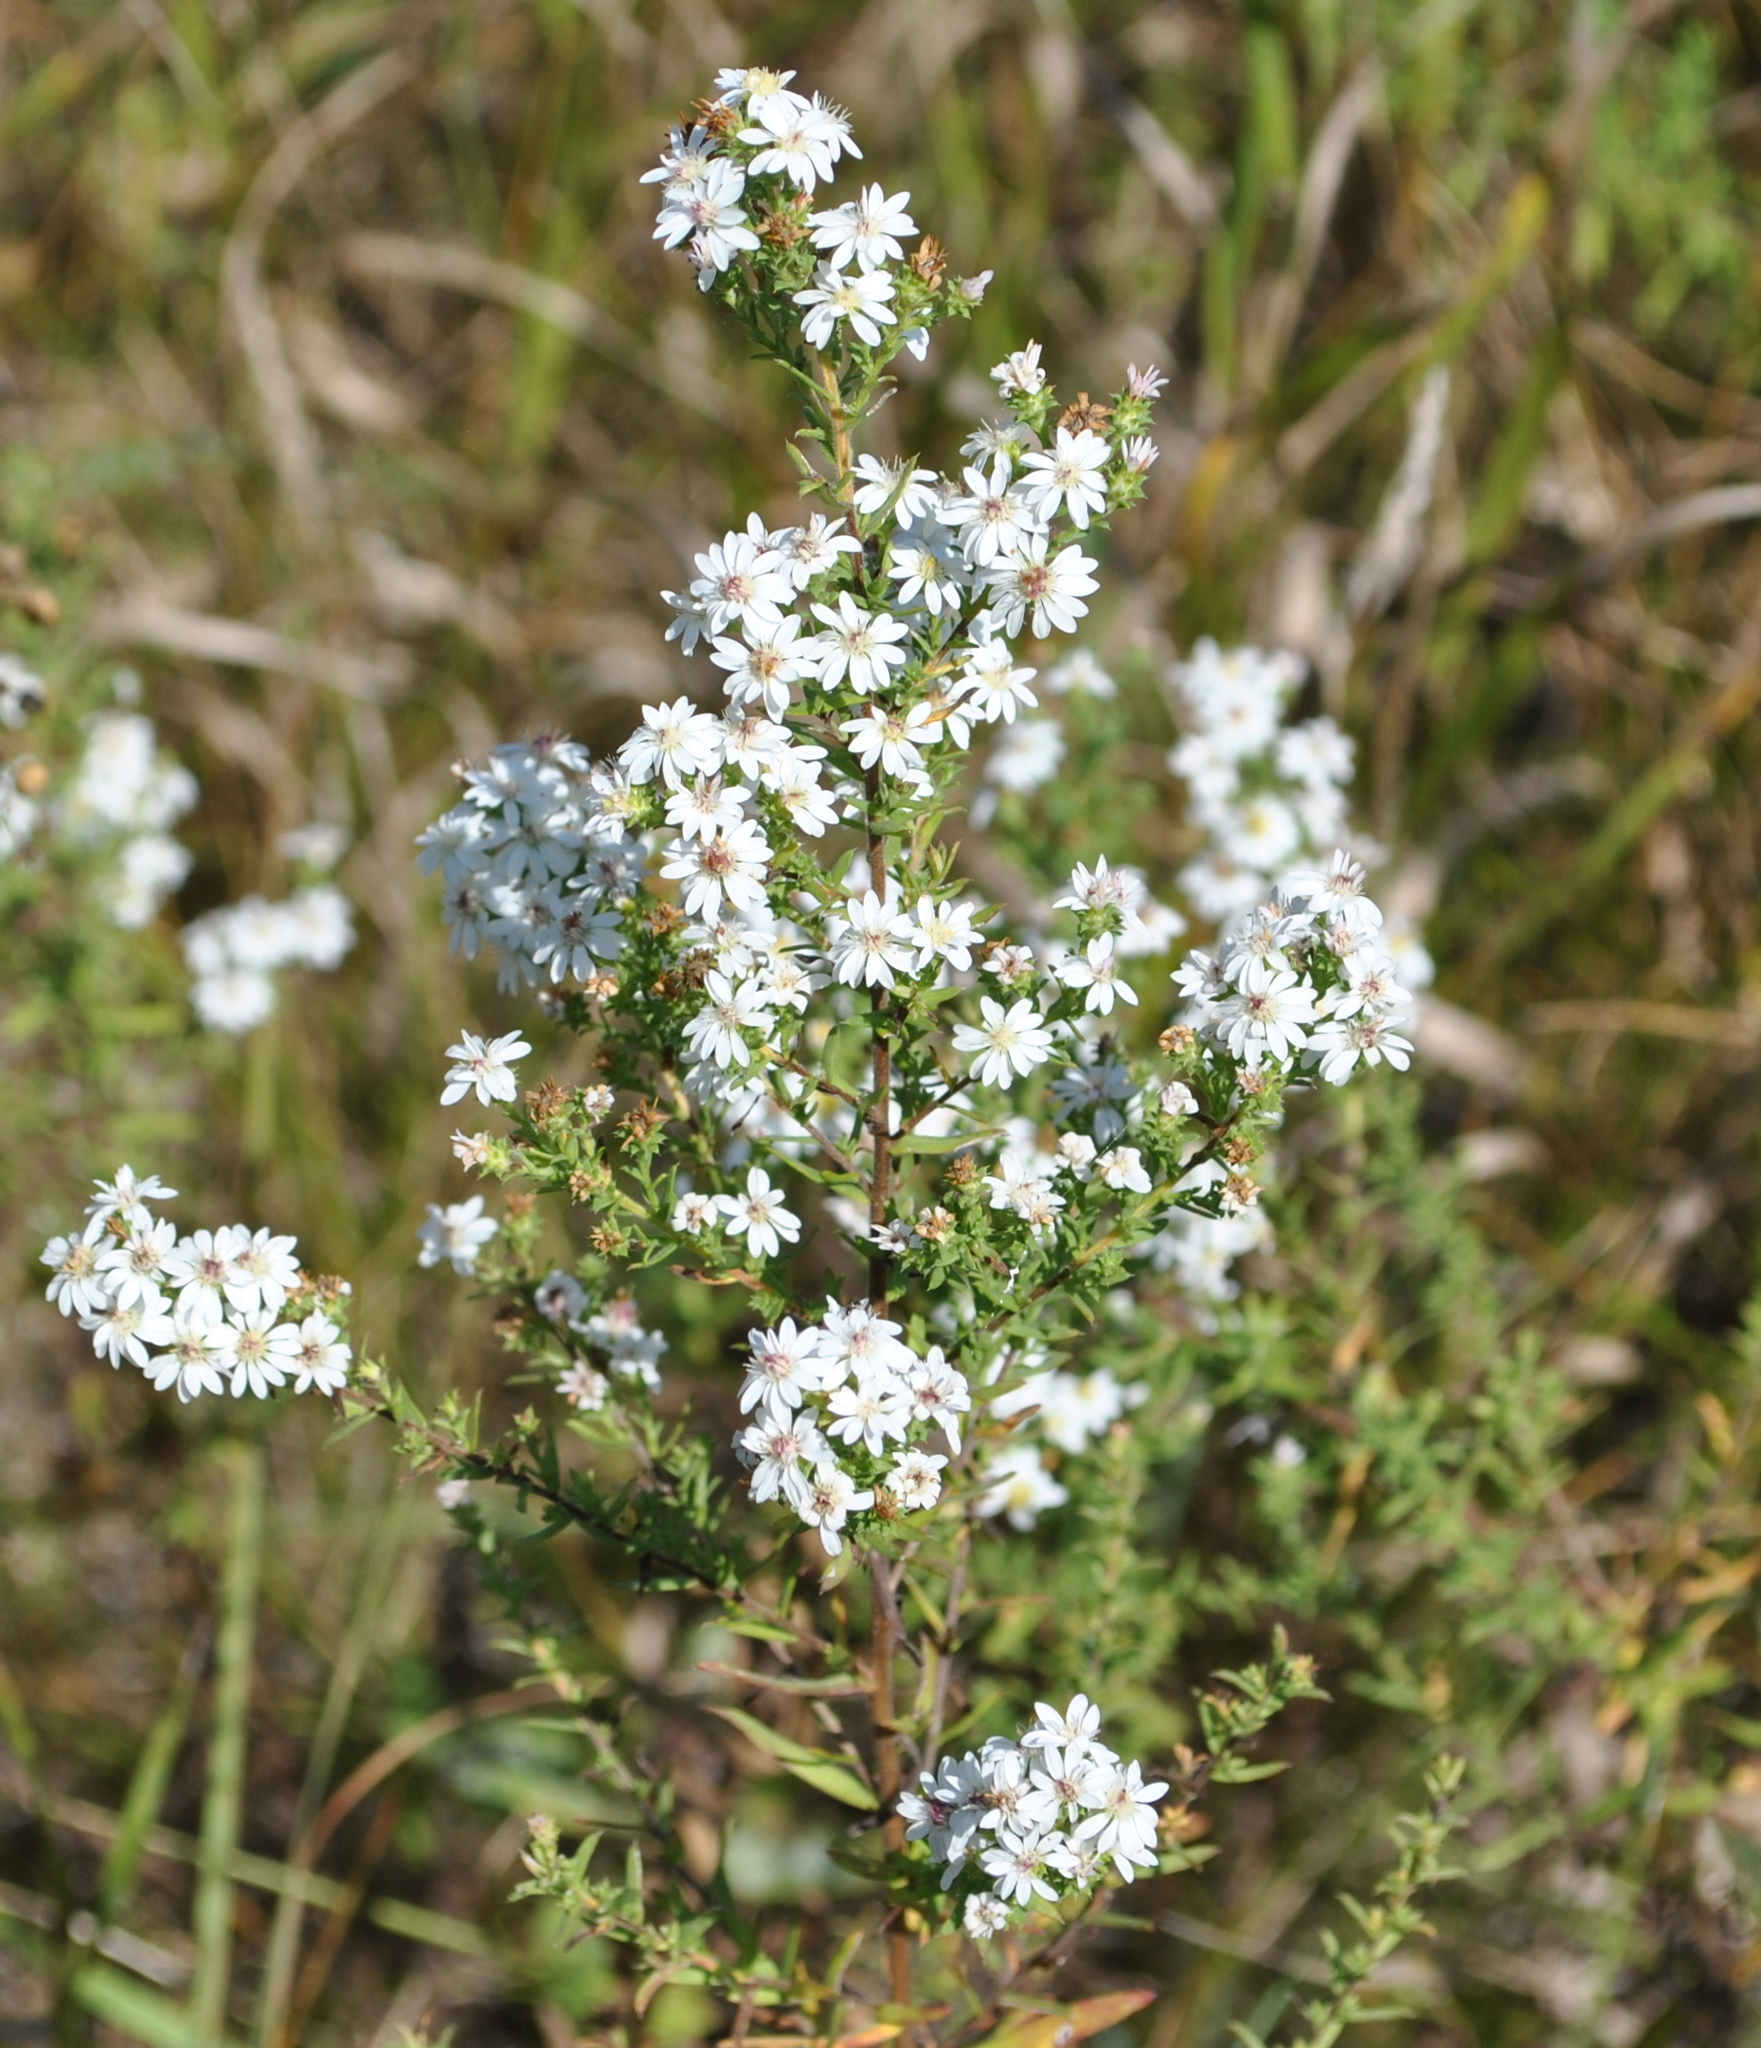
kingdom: Plantae
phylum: Tracheophyta
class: Magnoliopsida
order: Asterales
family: Asteraceae
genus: Symphyotrichum
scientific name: Symphyotrichum ericoides
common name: Heath aster
